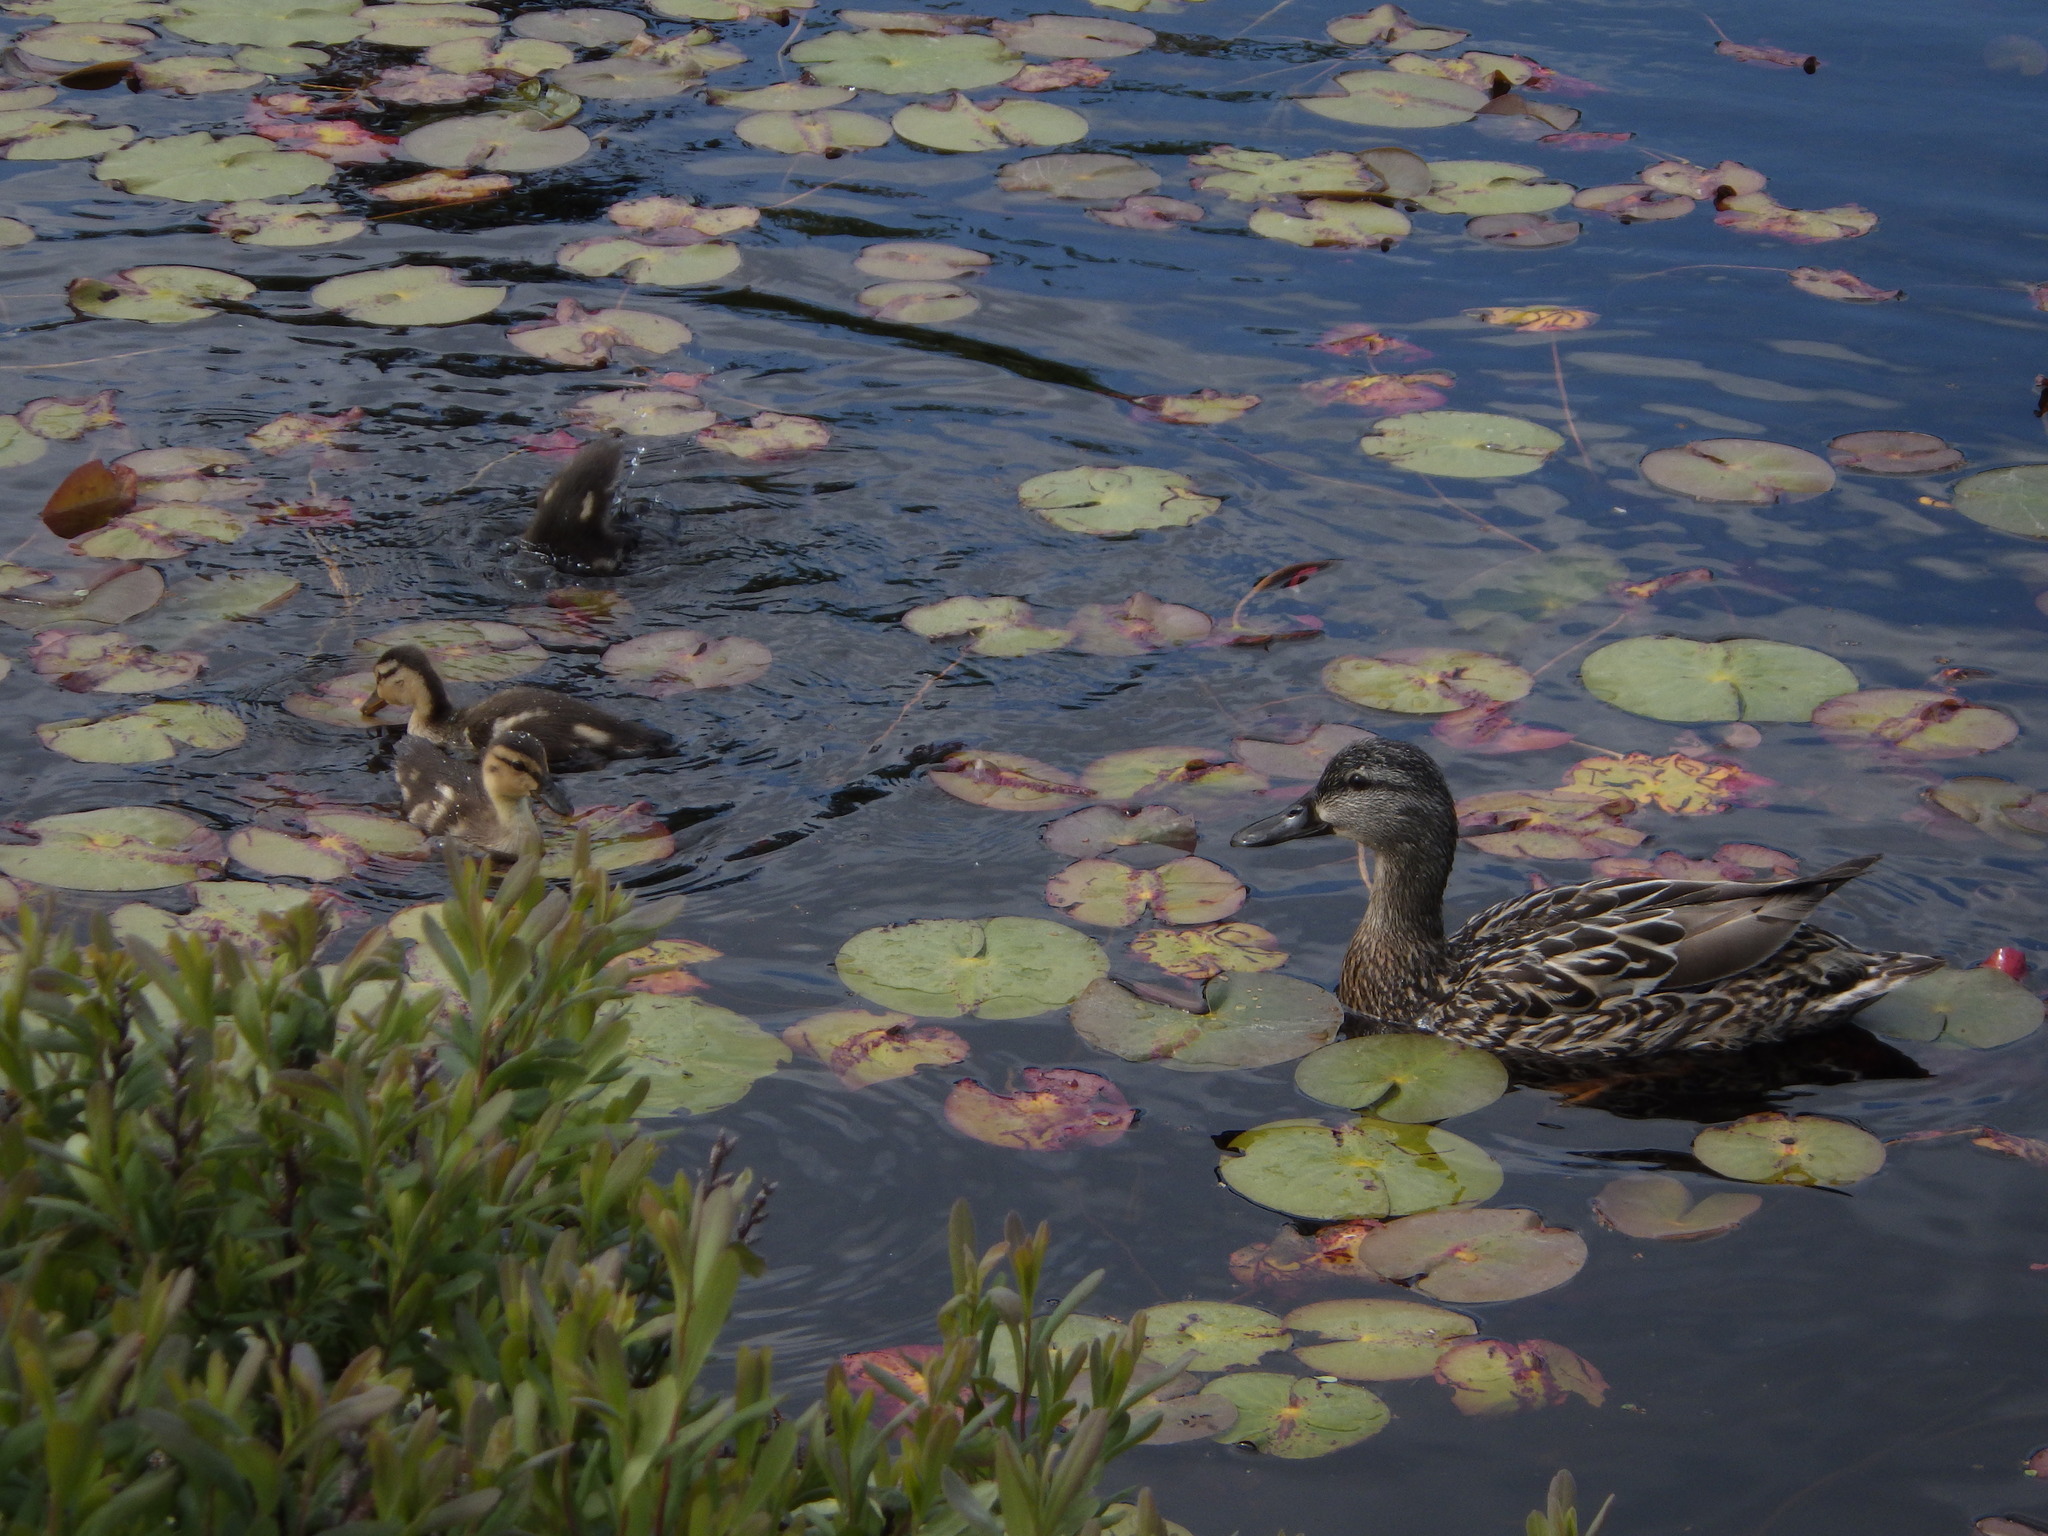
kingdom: Animalia
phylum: Chordata
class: Aves
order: Anseriformes
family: Anatidae
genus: Anas
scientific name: Anas platyrhynchos
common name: Mallard
